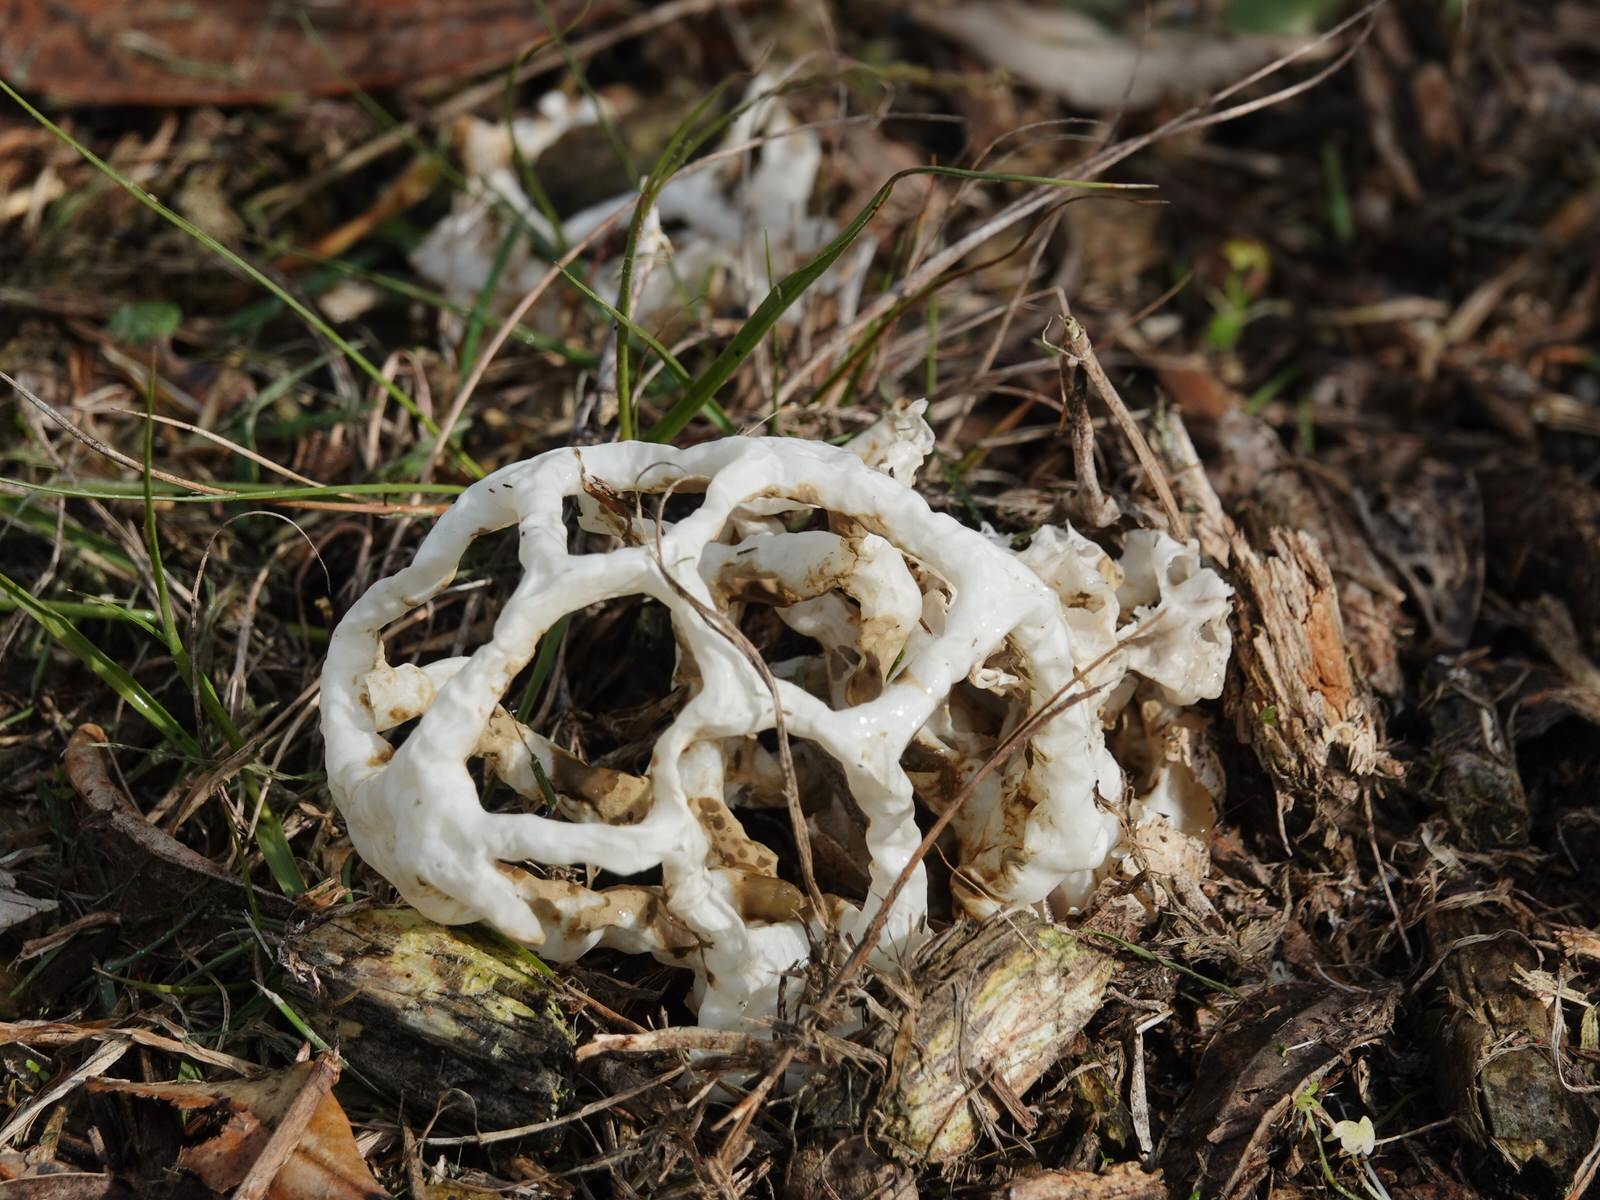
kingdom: Fungi
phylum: Basidiomycota
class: Agaricomycetes
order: Phallales
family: Phallaceae
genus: Ileodictyon
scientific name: Ileodictyon cibarium
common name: Basket fungus
